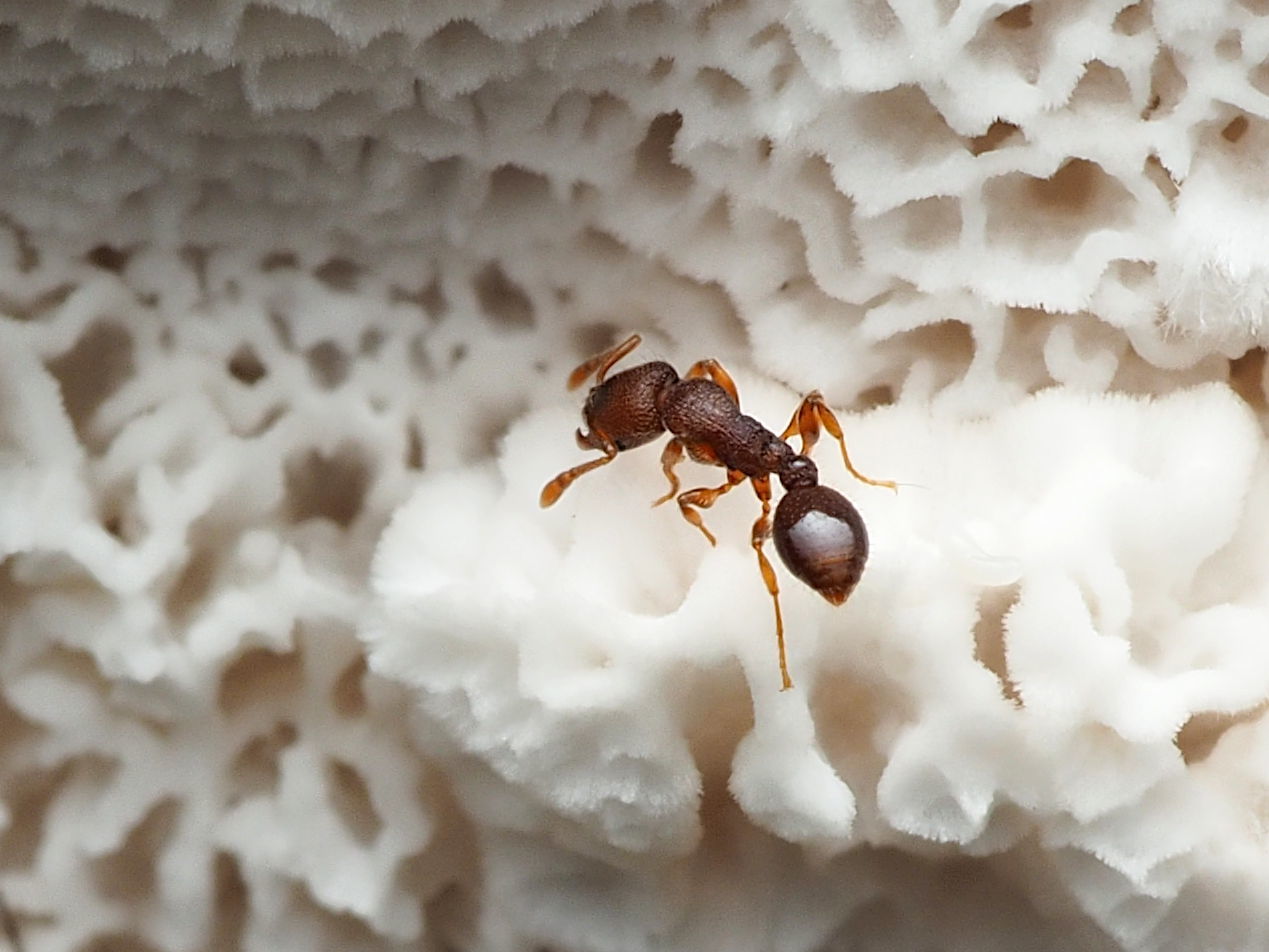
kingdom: Animalia
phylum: Arthropoda
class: Insecta
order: Hymenoptera
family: Formicidae
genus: Vollenhovia
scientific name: Vollenhovia emeryi
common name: Ant
